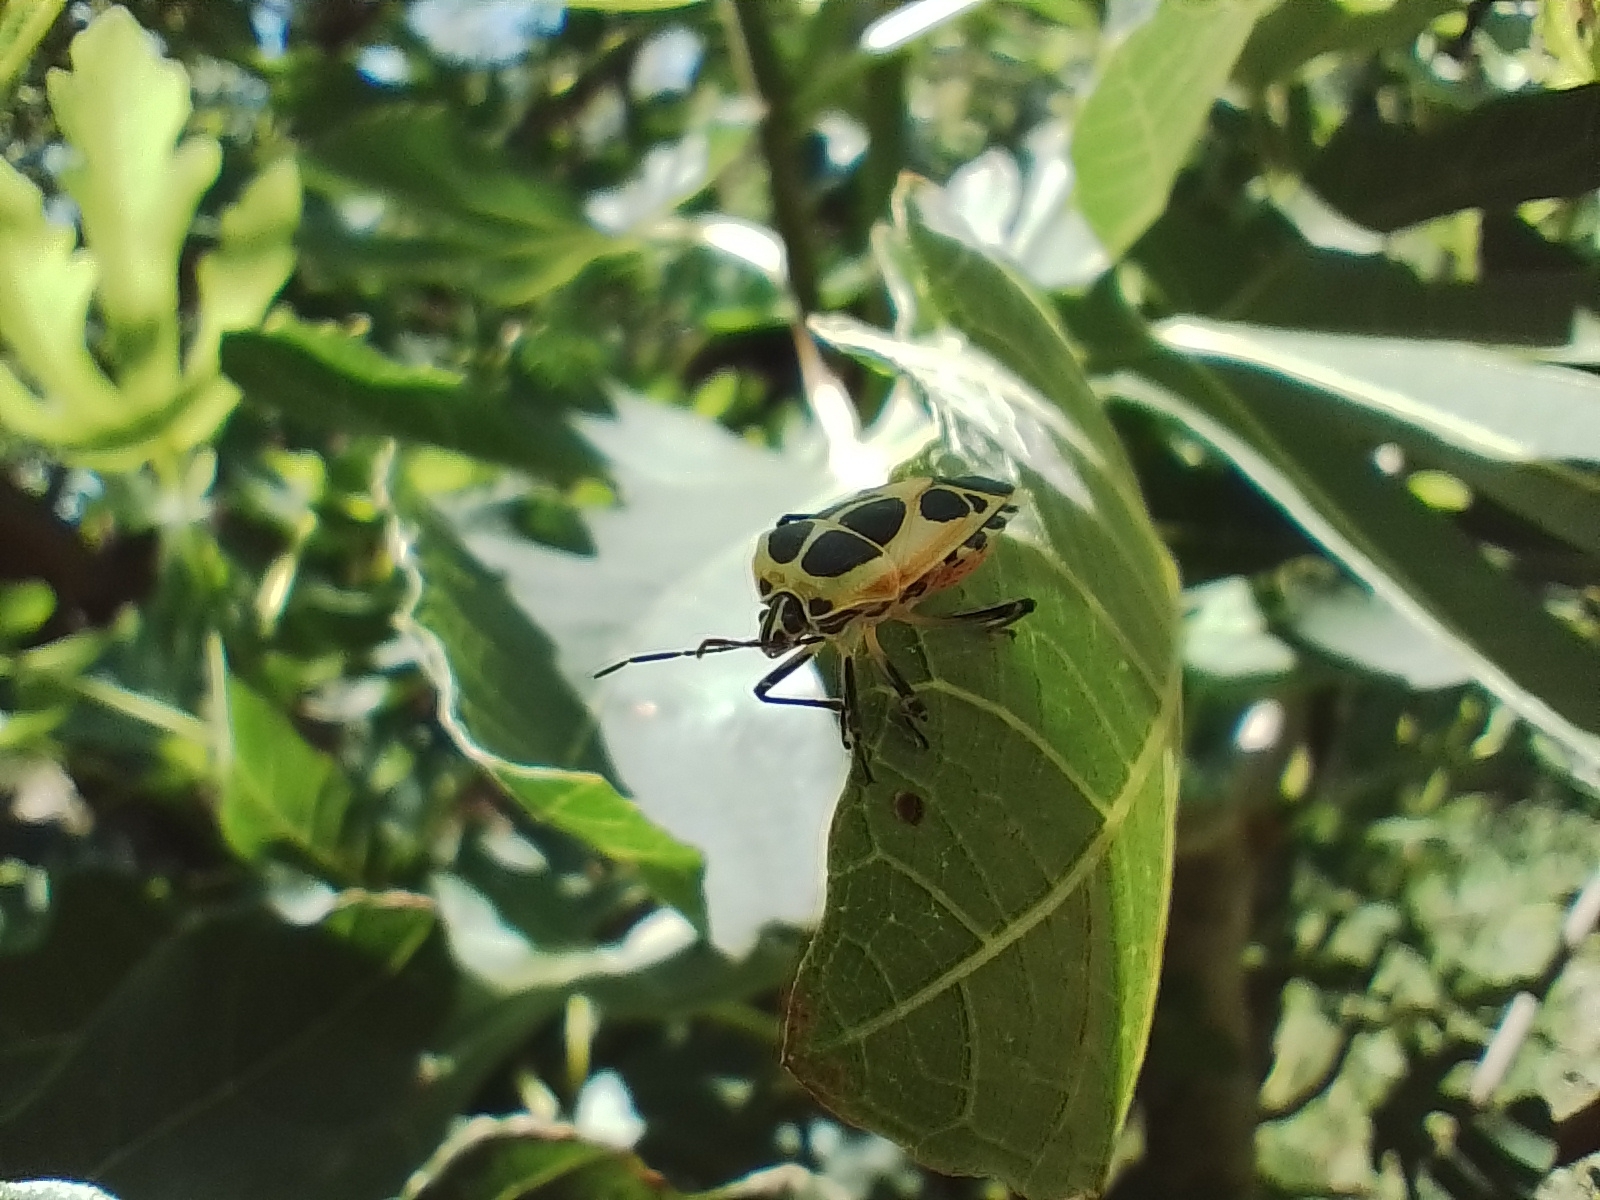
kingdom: Animalia
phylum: Arthropoda
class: Insecta
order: Hemiptera
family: Pentatomidae
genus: Runibia
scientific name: Runibia perspicua
